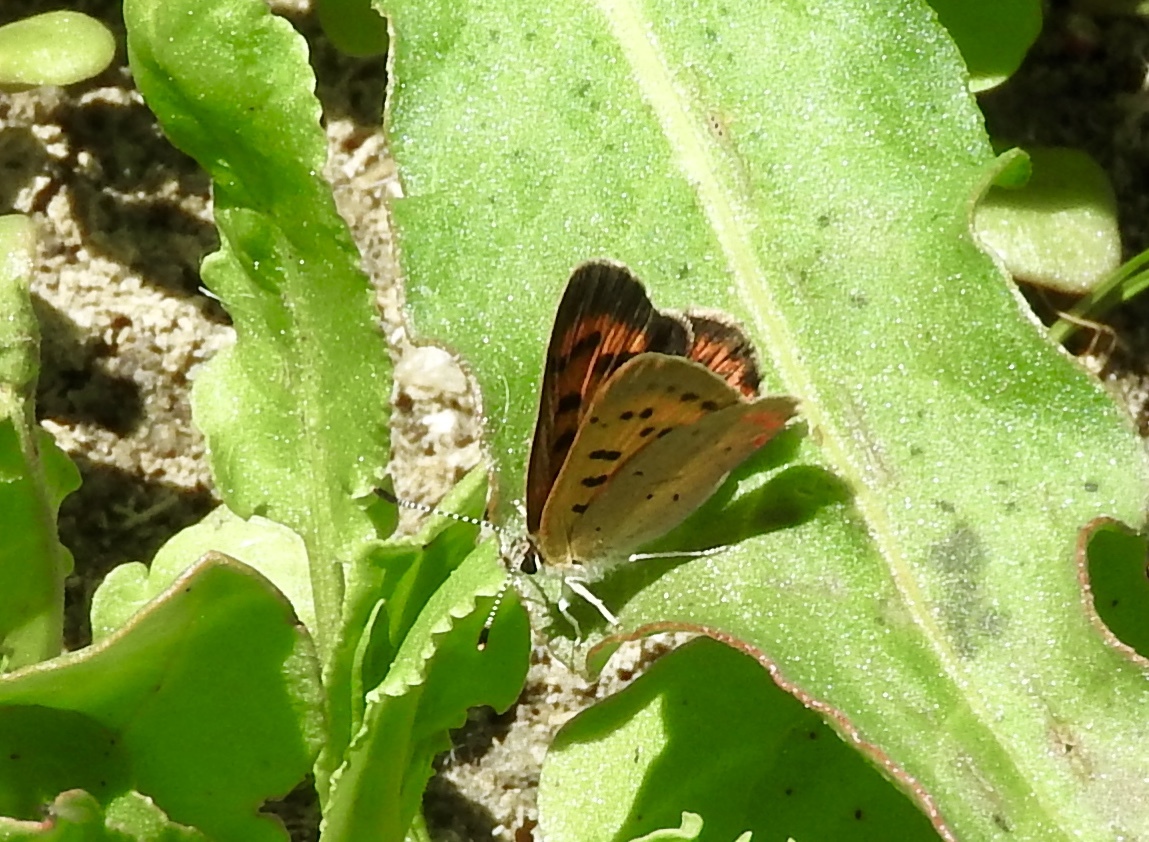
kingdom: Animalia
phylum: Arthropoda
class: Insecta
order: Lepidoptera
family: Lycaenidae
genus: Tharsalea
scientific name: Tharsalea helloides
